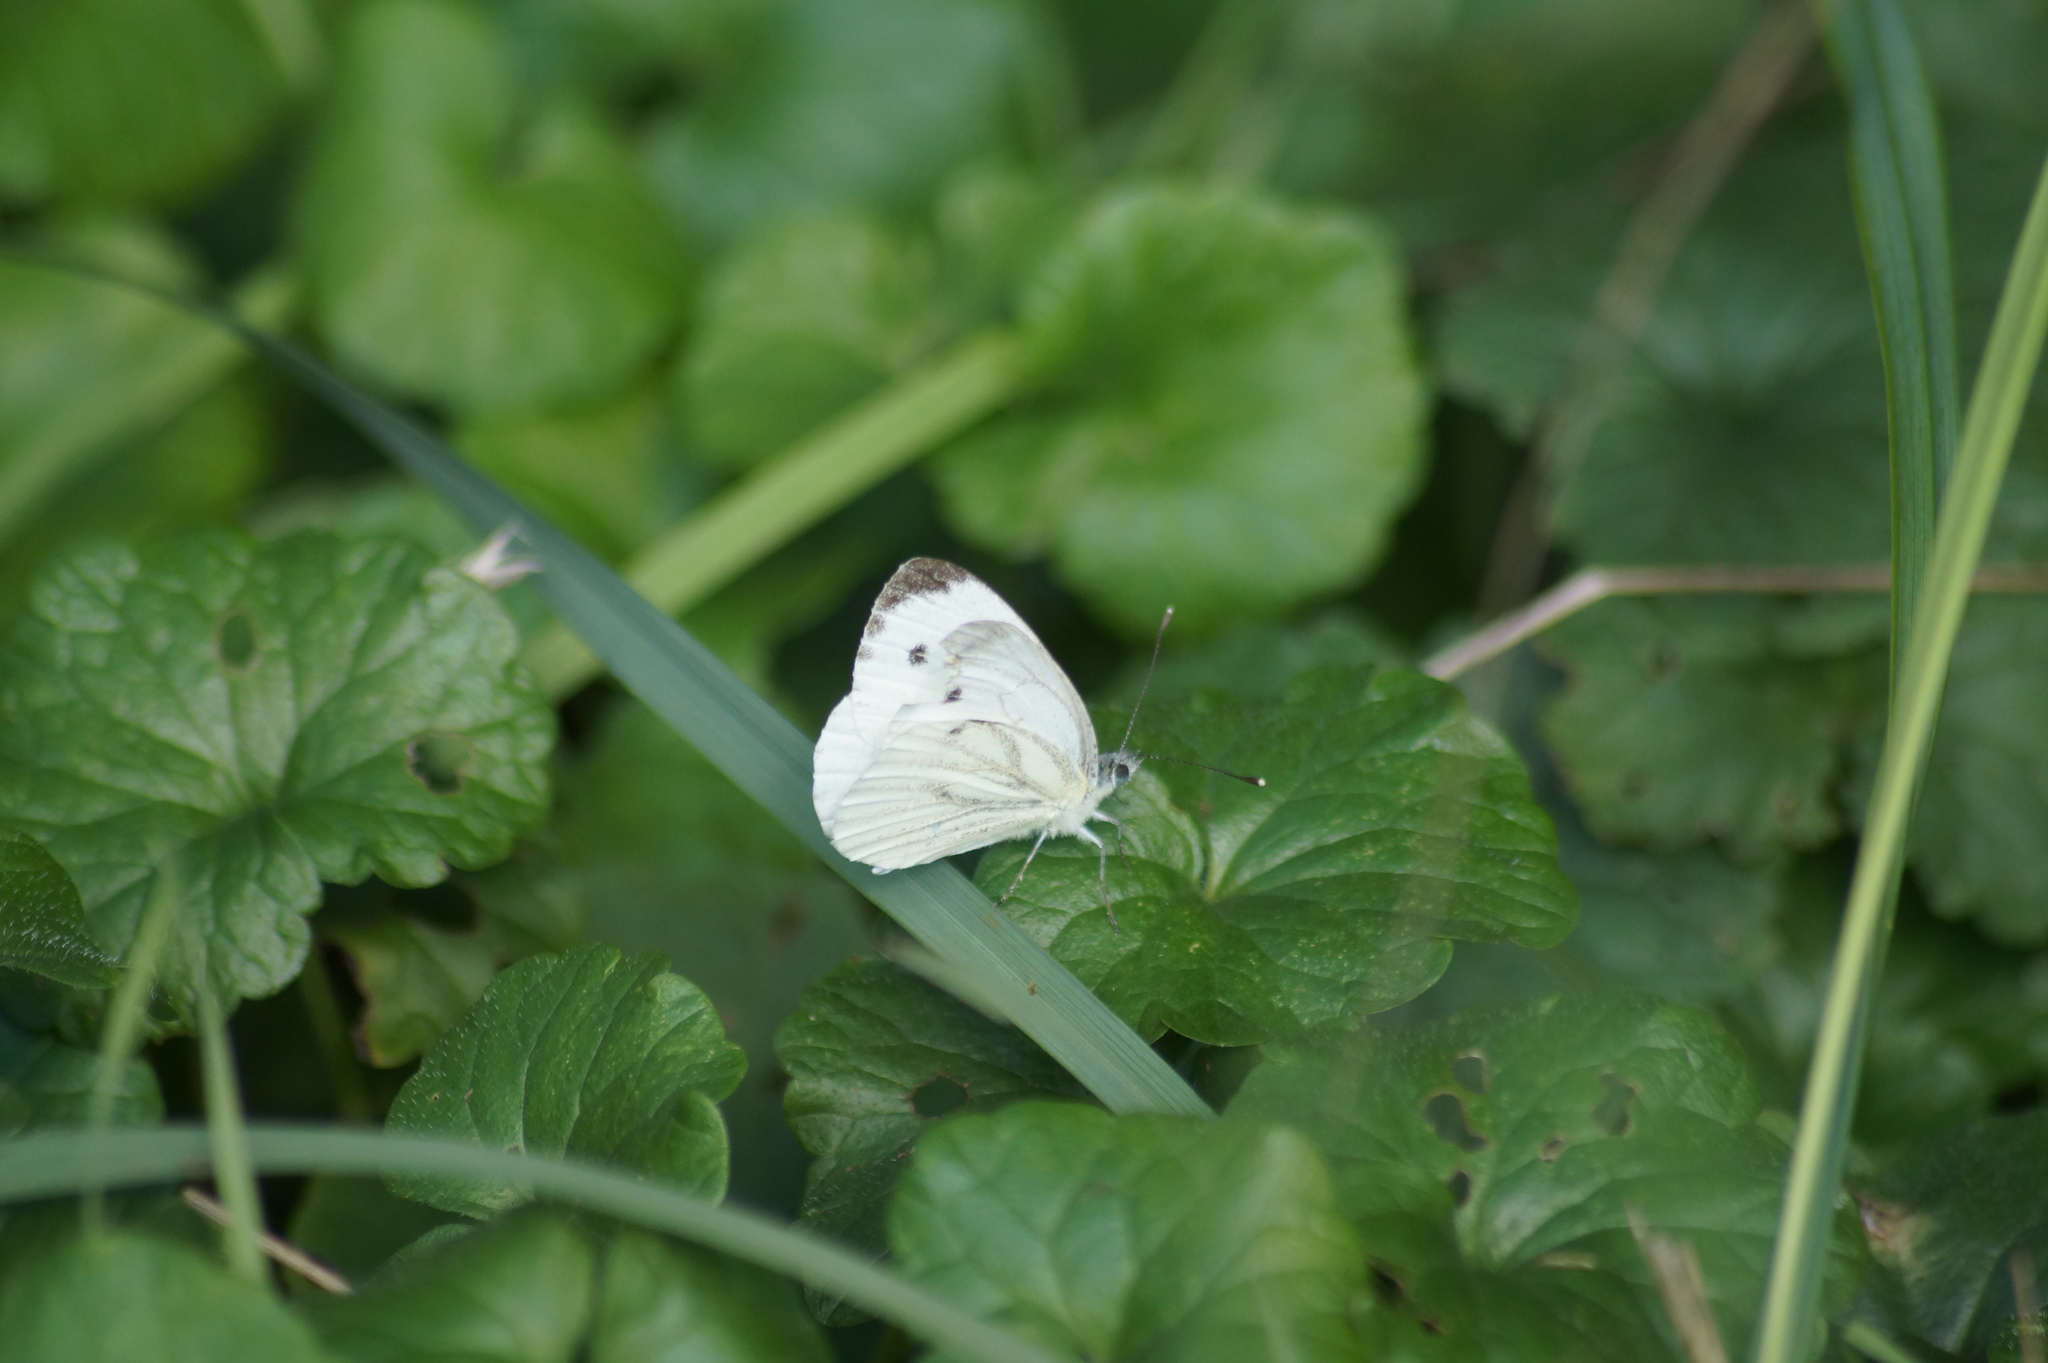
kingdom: Animalia
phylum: Arthropoda
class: Insecta
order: Lepidoptera
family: Pieridae
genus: Pieris
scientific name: Pieris napi
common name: Green-veined white
